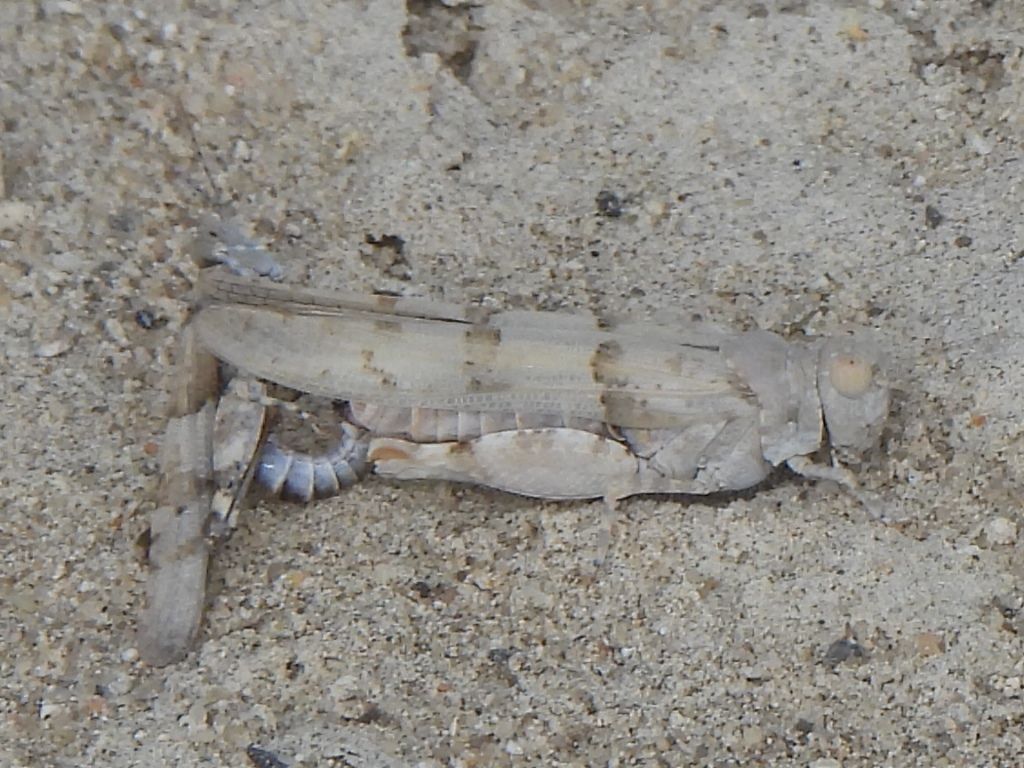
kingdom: Animalia
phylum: Arthropoda
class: Insecta
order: Orthoptera
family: Acrididae
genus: Sphingonotus
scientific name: Sphingonotus rubescens
